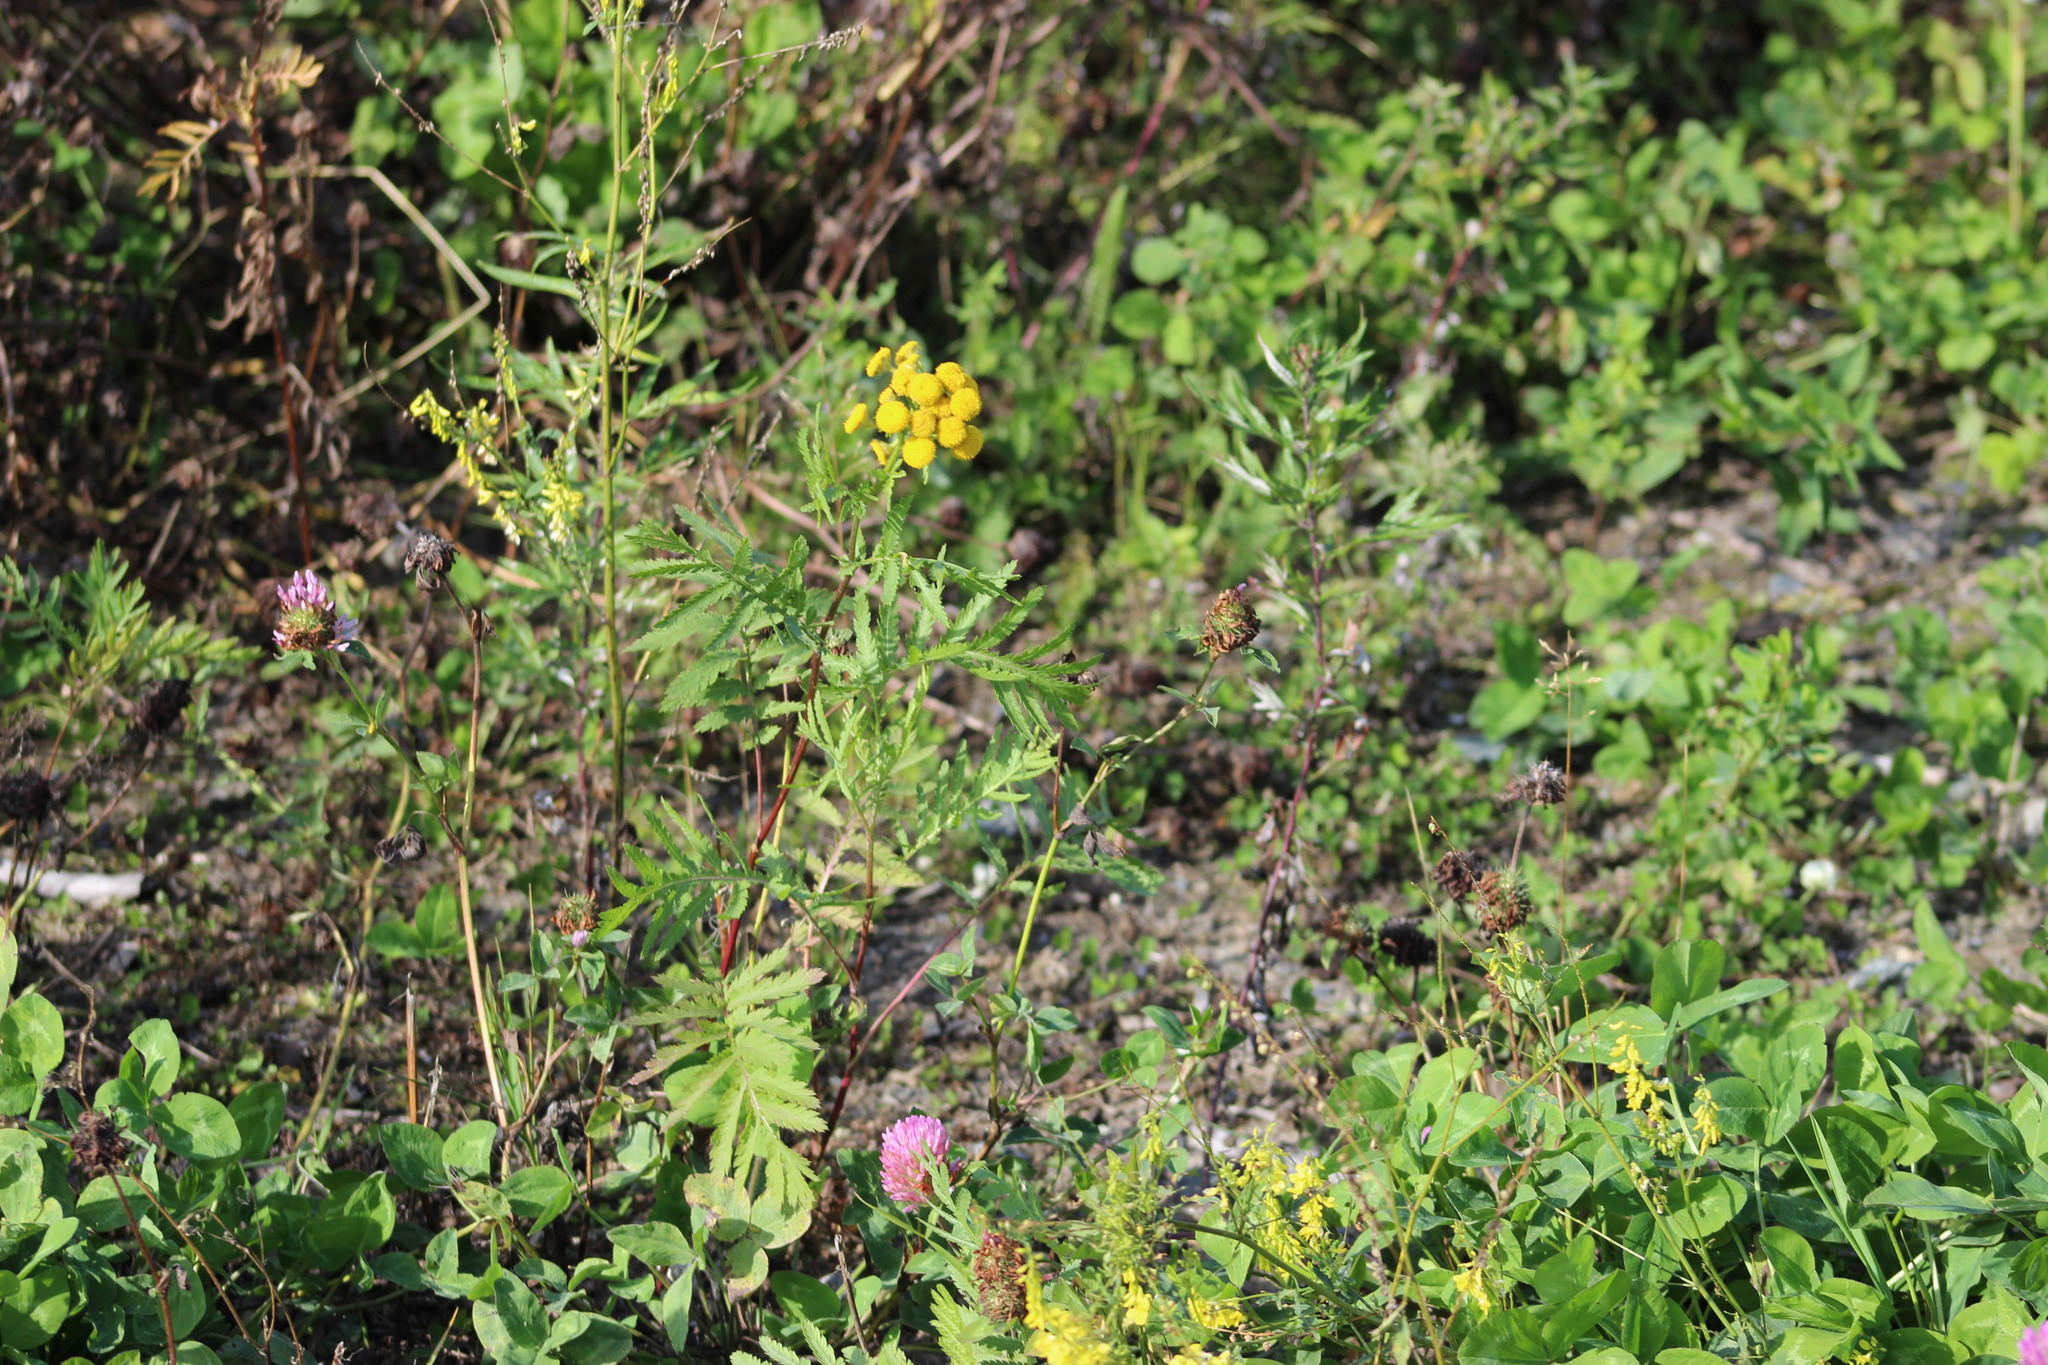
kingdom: Plantae
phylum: Tracheophyta
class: Magnoliopsida
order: Asterales
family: Asteraceae
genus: Tanacetum
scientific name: Tanacetum vulgare
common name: Common tansy
